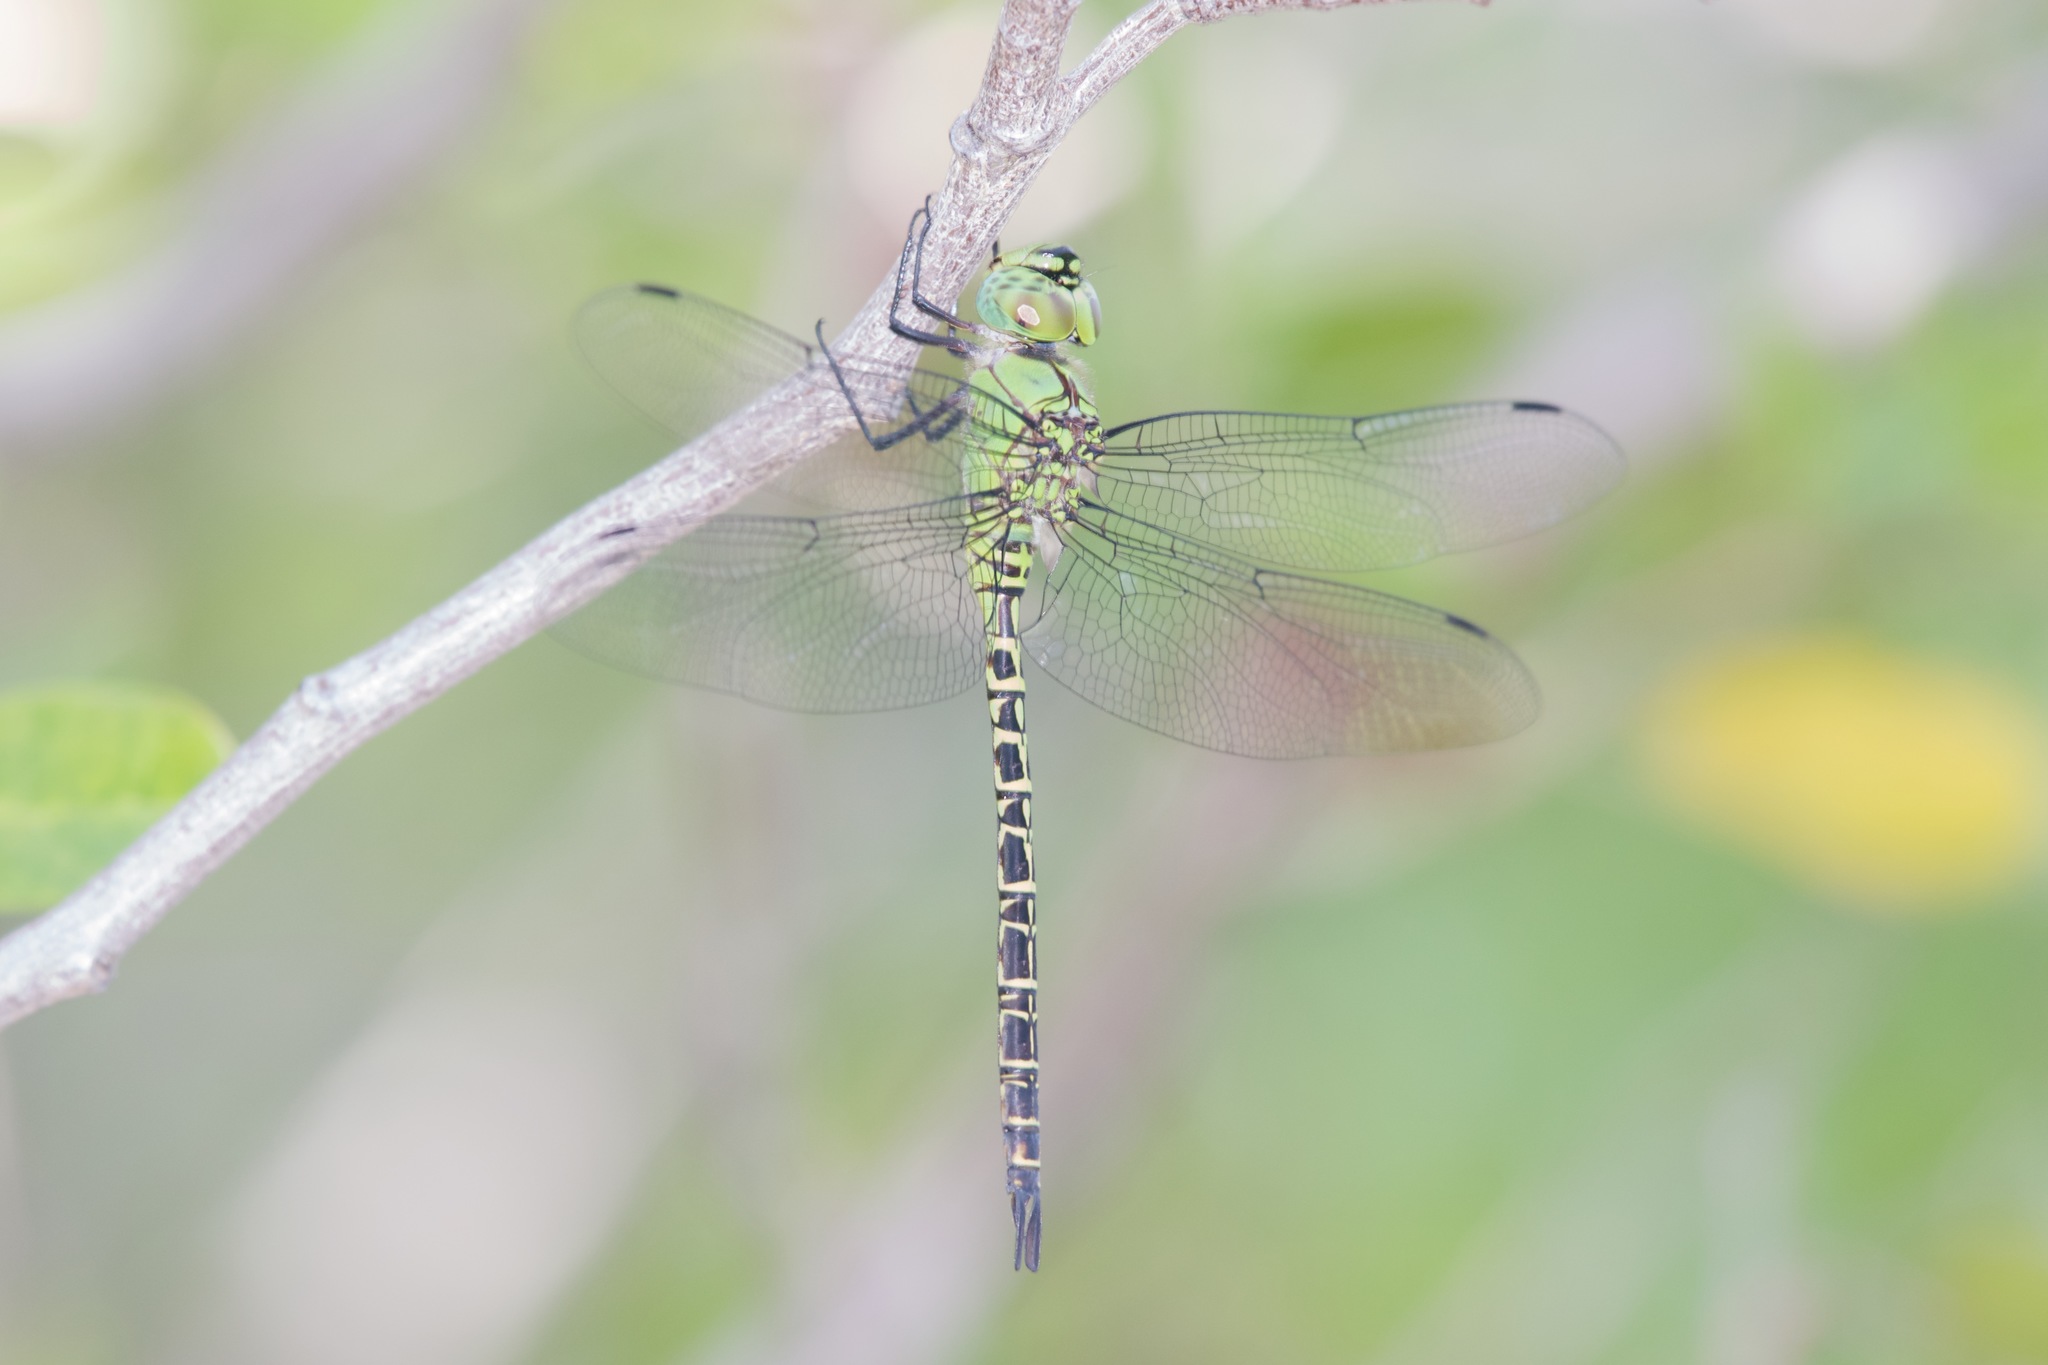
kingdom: Animalia
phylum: Arthropoda
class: Insecta
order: Odonata
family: Aeshnidae
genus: Coryphaeschna
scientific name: Coryphaeschna viriditas
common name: Mangrove darner
